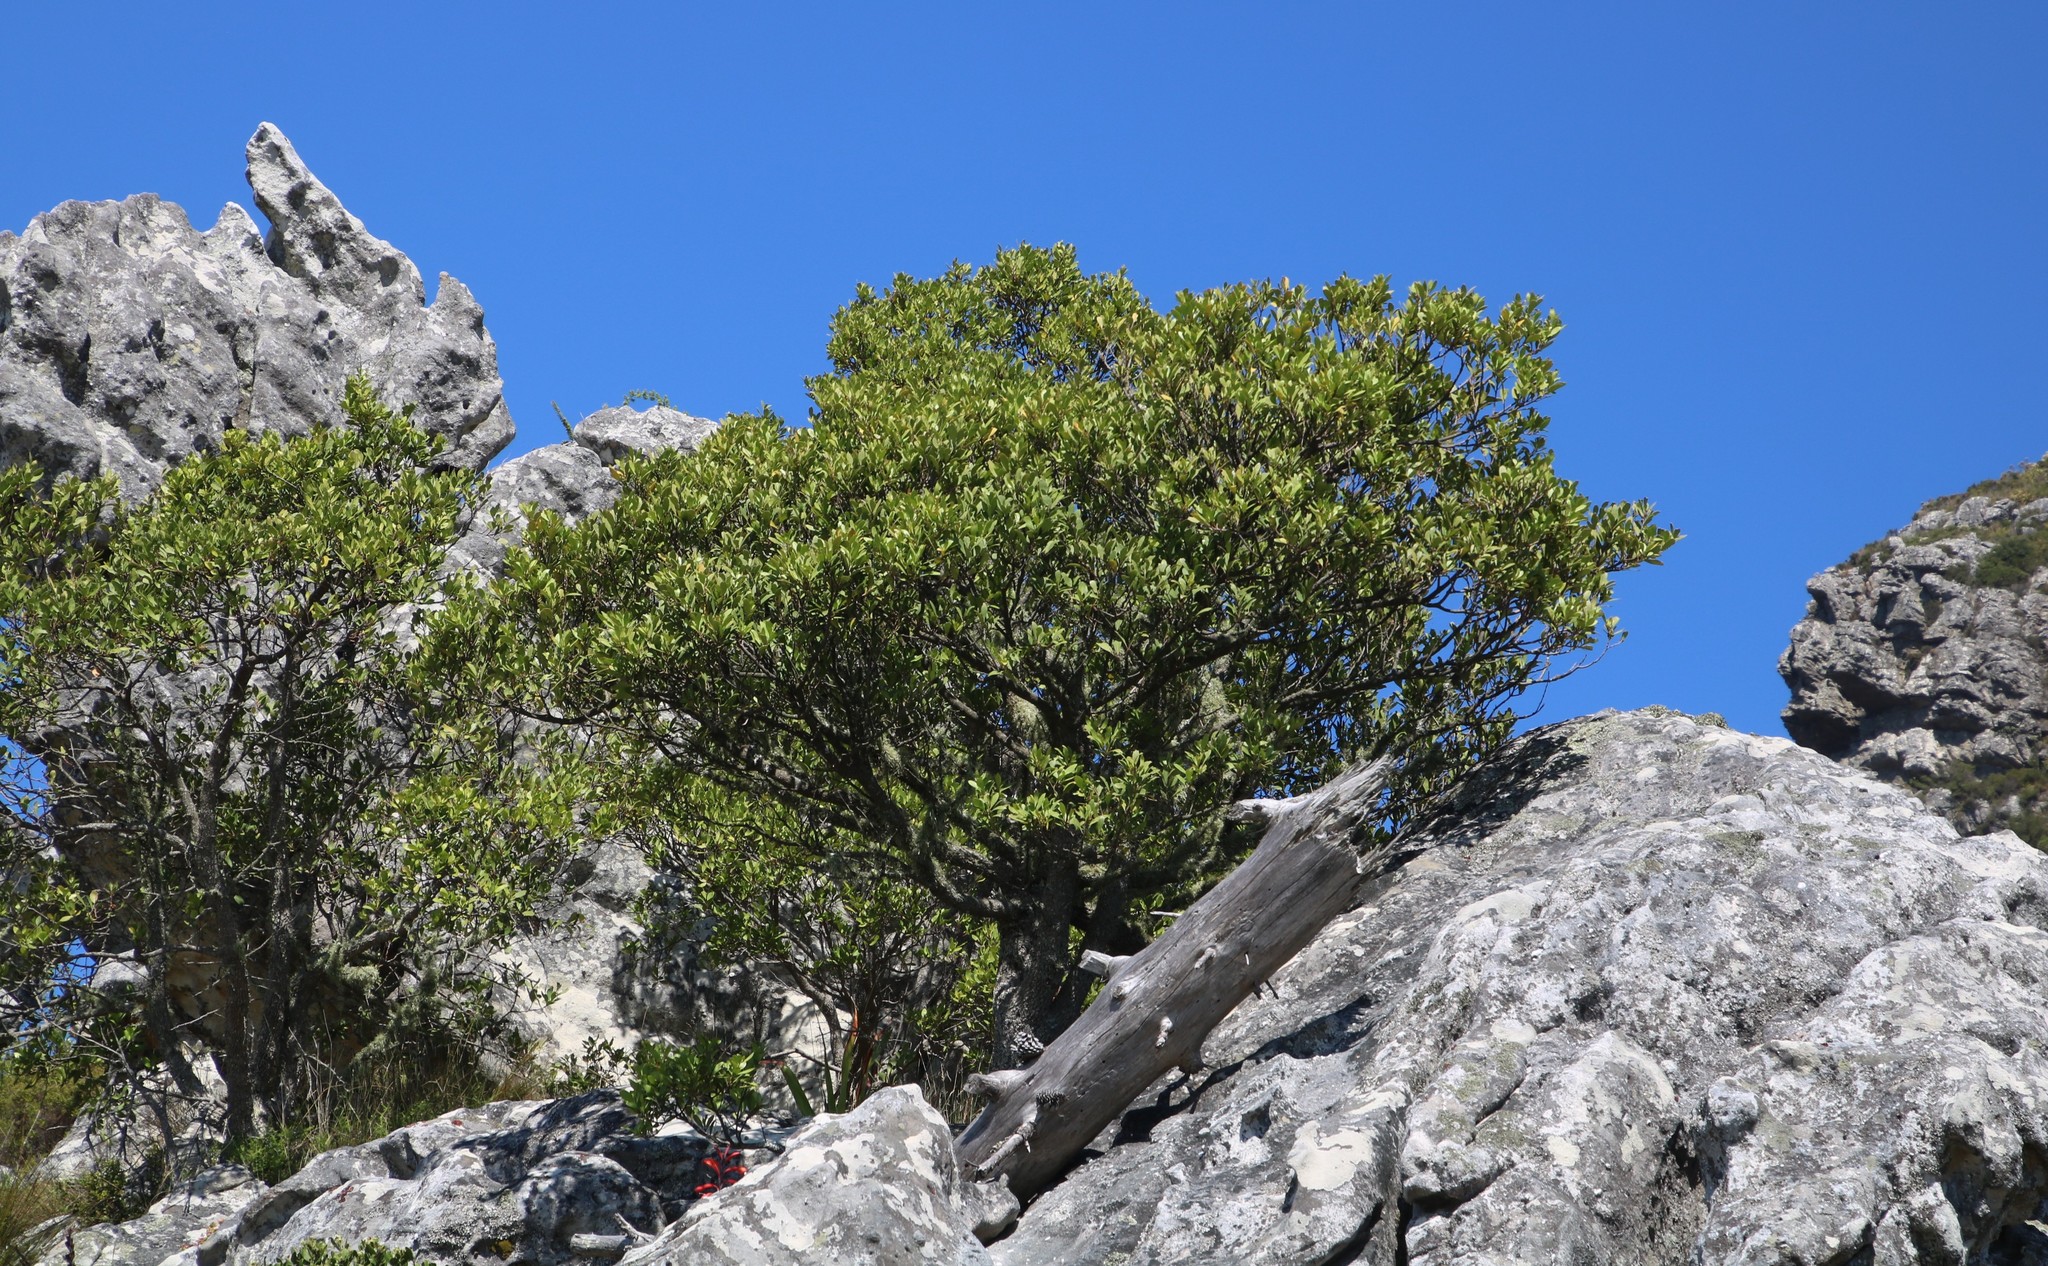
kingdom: Plantae
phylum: Tracheophyta
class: Magnoliopsida
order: Celastrales
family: Celastraceae
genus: Gymnosporia
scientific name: Gymnosporia laurina
